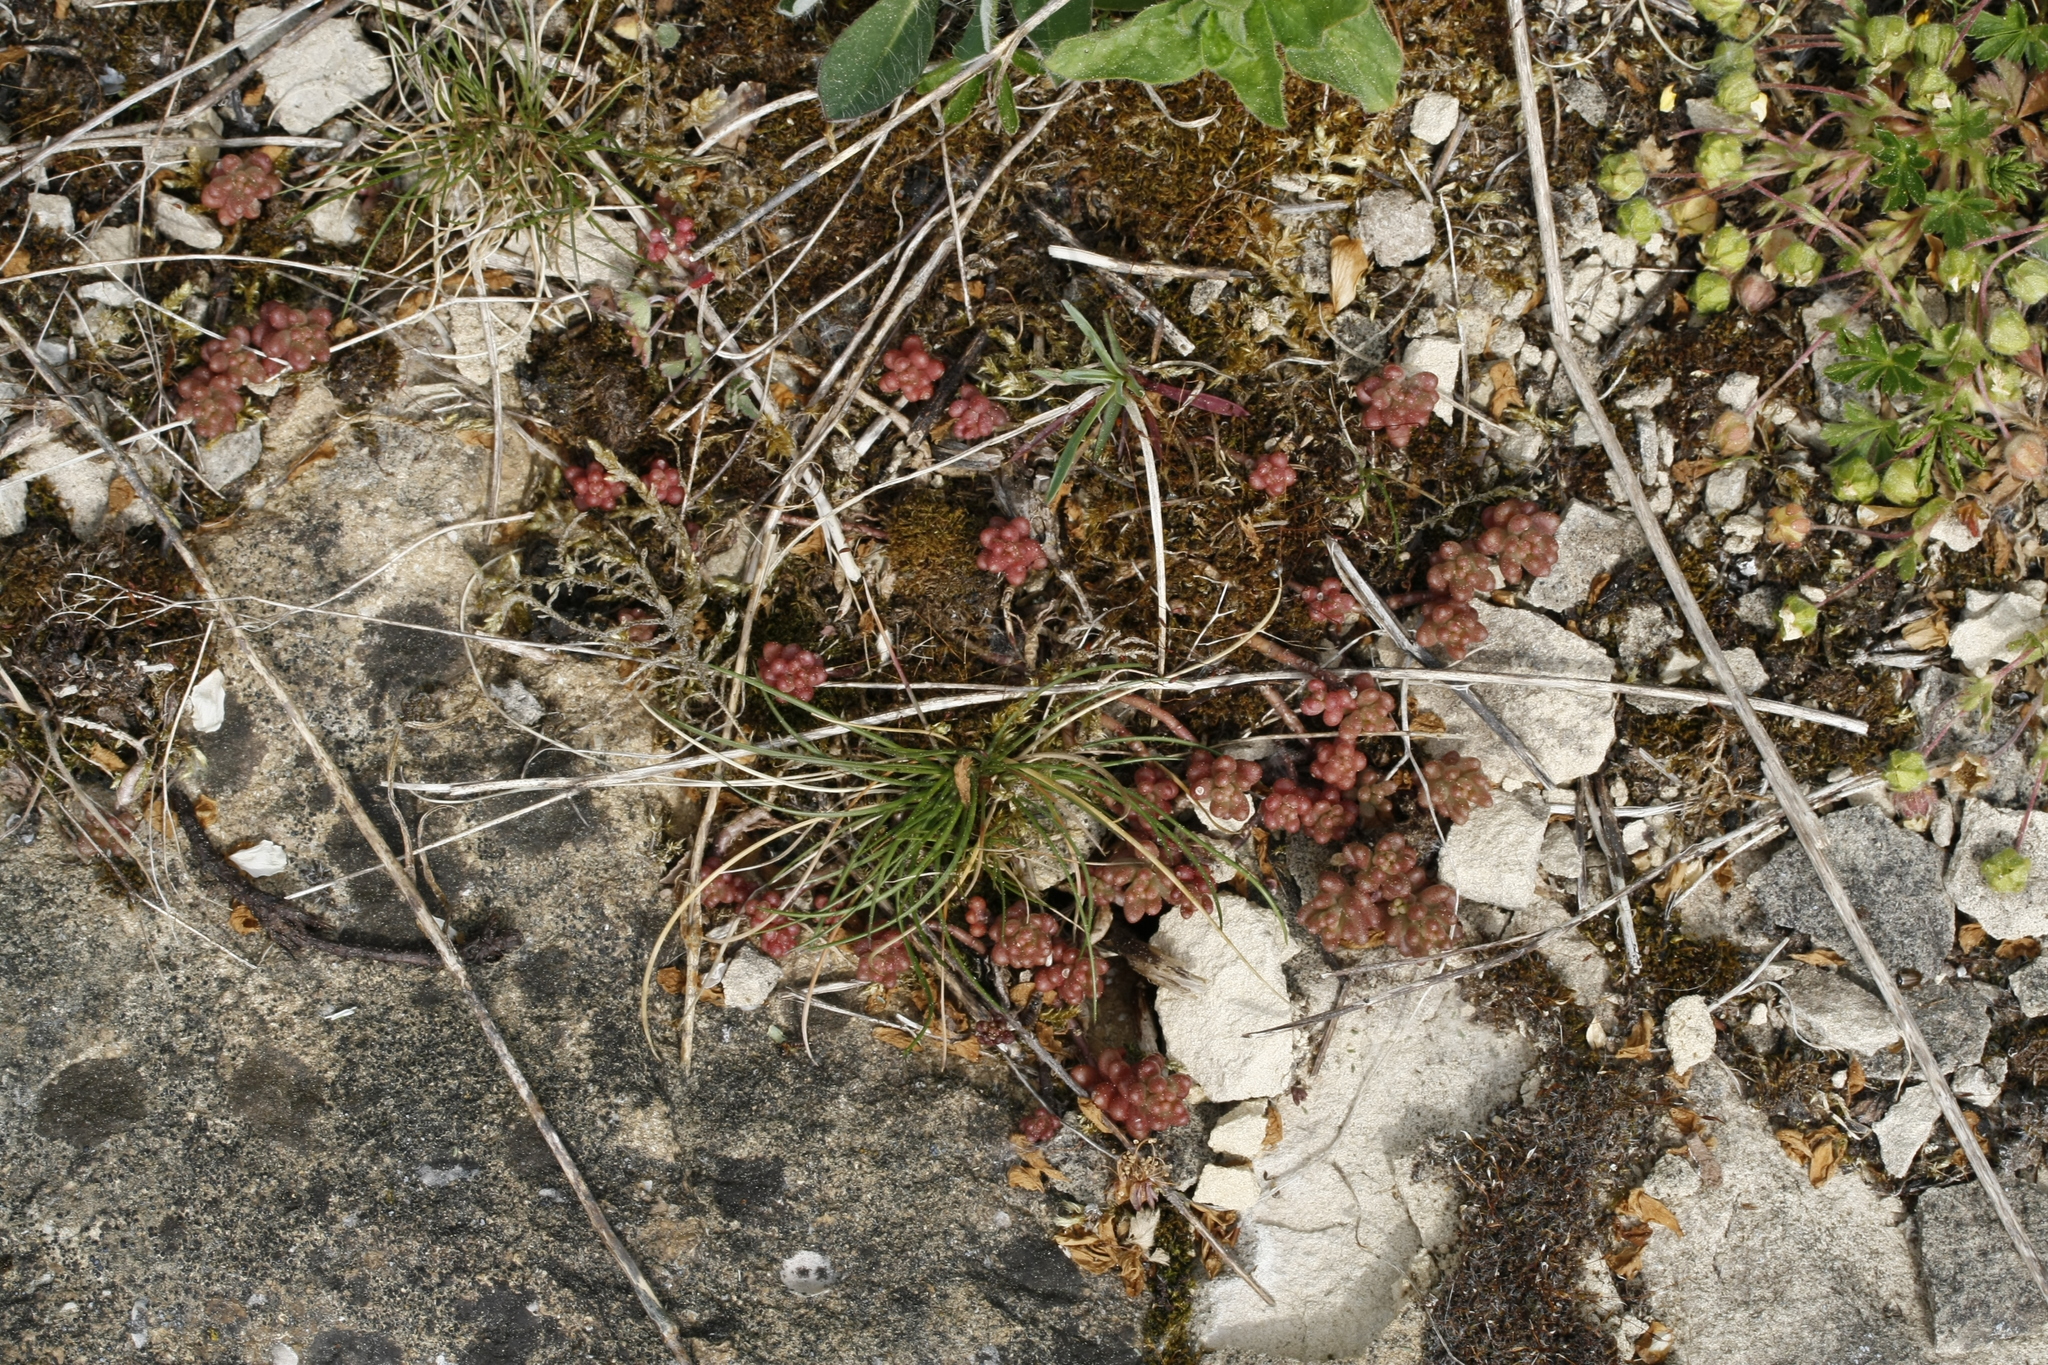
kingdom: Plantae
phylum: Tracheophyta
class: Magnoliopsida
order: Saxifragales
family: Crassulaceae
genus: Sedum
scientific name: Sedum album
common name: White stonecrop
